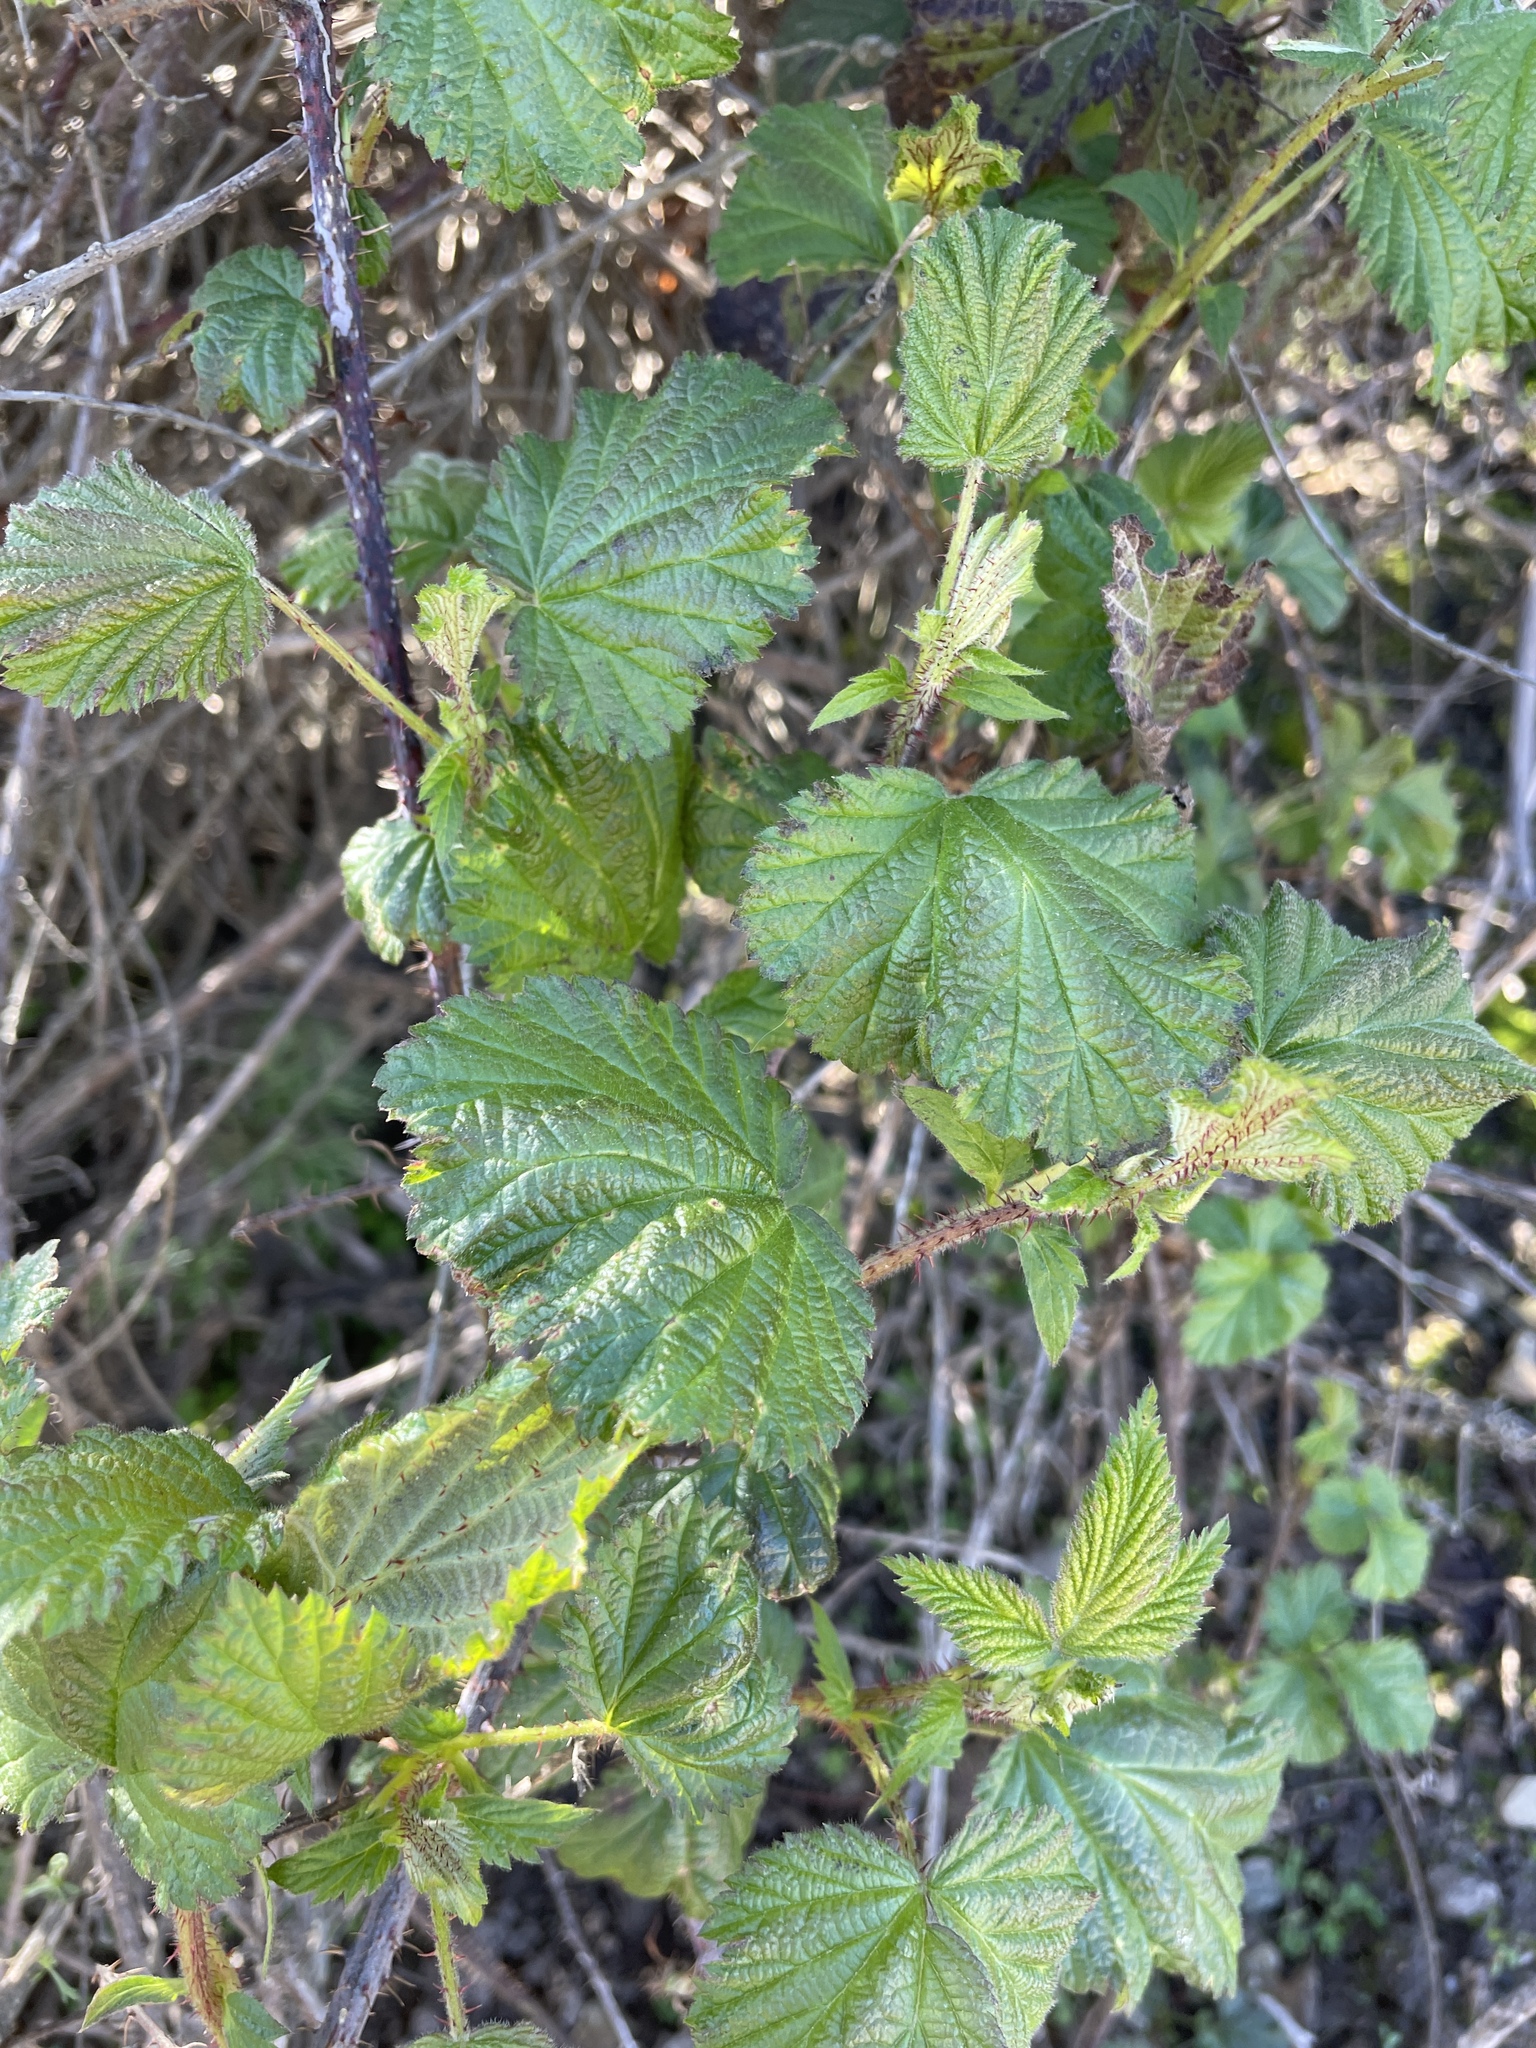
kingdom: Plantae
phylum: Tracheophyta
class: Magnoliopsida
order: Rosales
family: Rosaceae
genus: Rubus
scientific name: Rubus ursinus
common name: Pacific blackberry
